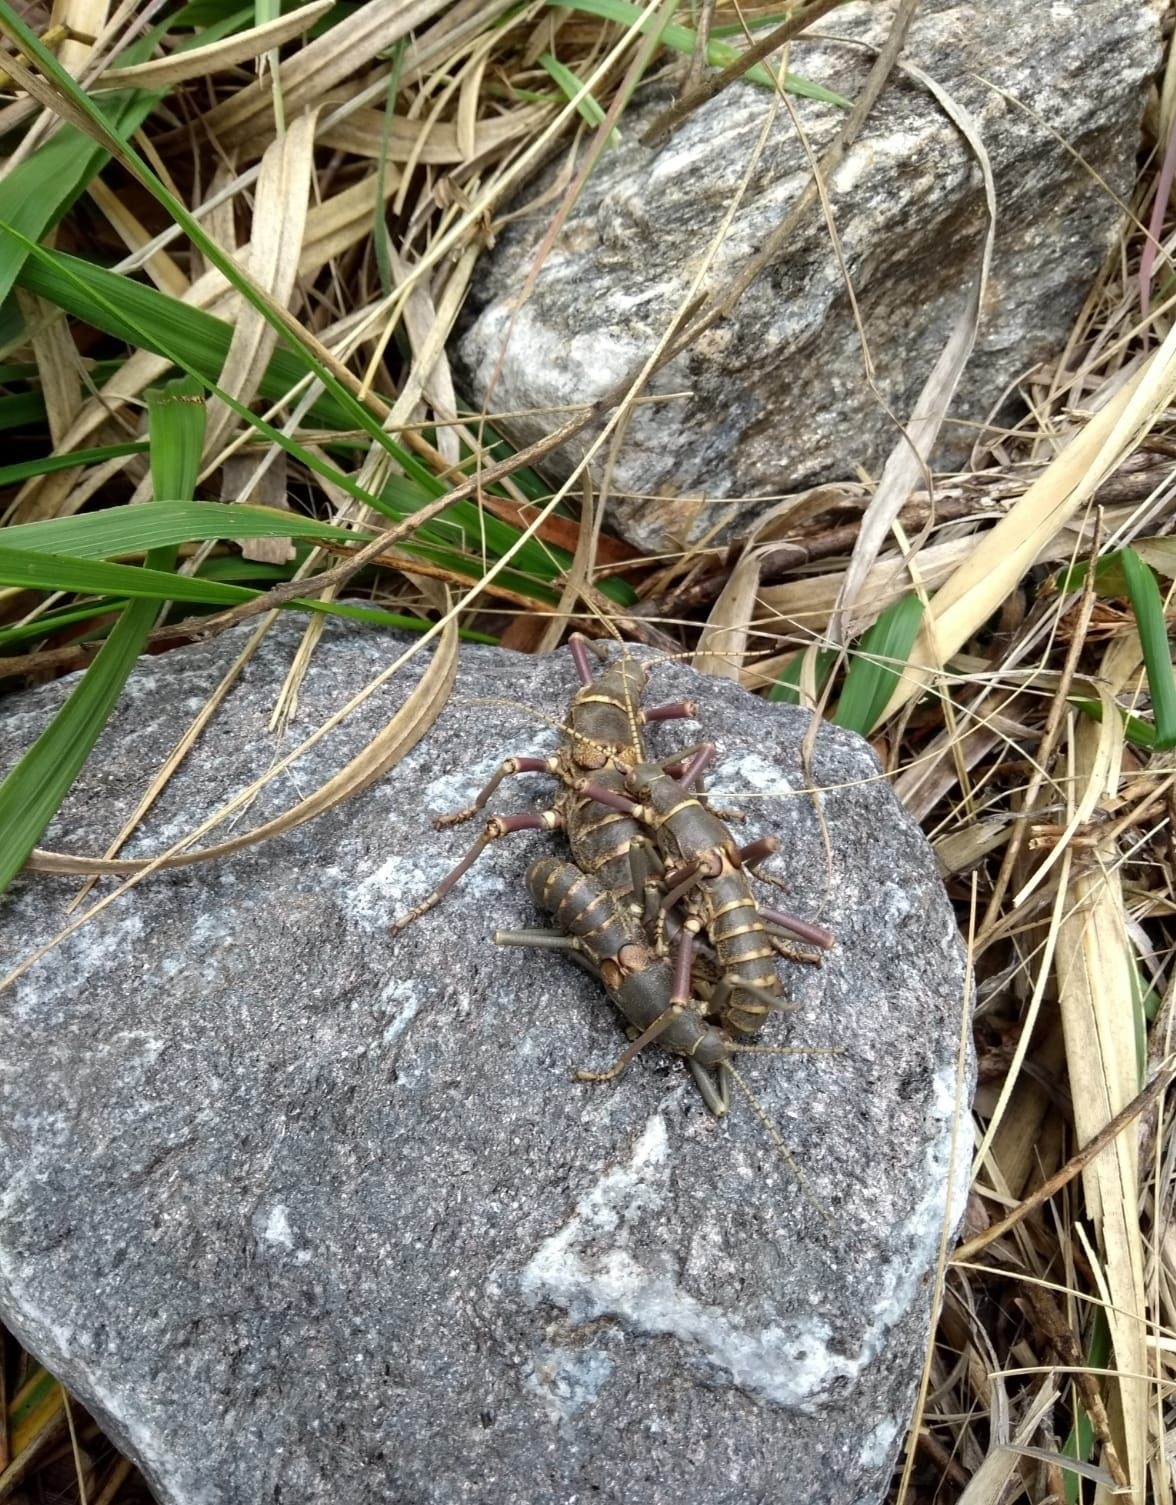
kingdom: Animalia
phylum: Arthropoda
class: Insecta
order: Phasmida
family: Agathemeridae
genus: Agathemera
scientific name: Agathemera luteola
